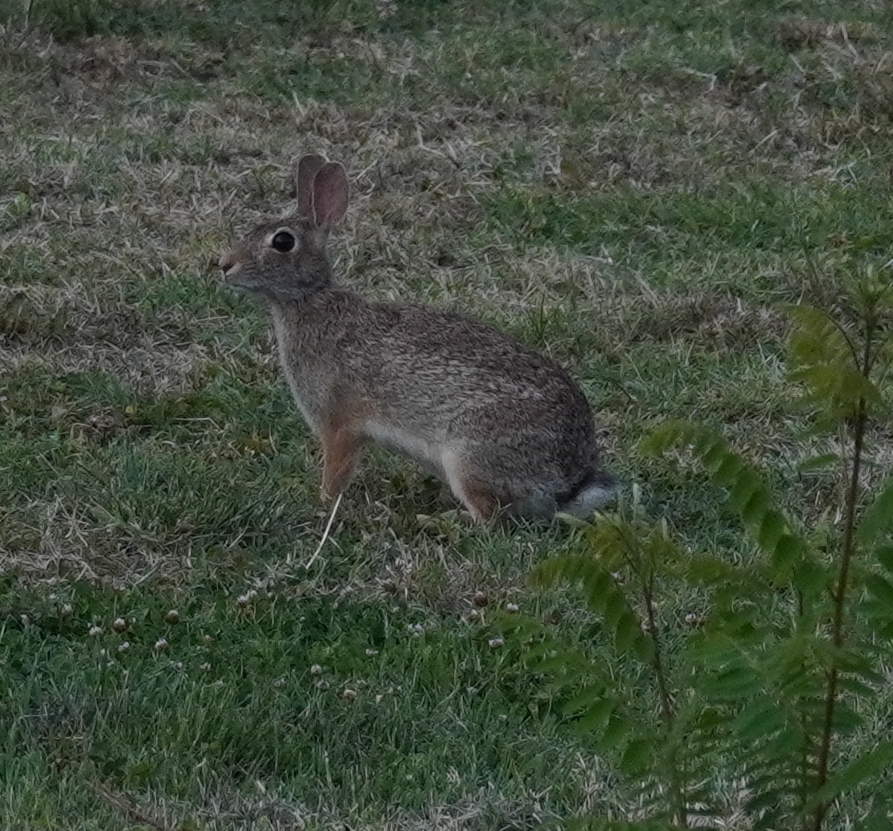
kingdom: Animalia
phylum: Chordata
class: Mammalia
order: Lagomorpha
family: Leporidae
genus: Sylvilagus
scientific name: Sylvilagus floridanus
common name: Eastern cottontail
